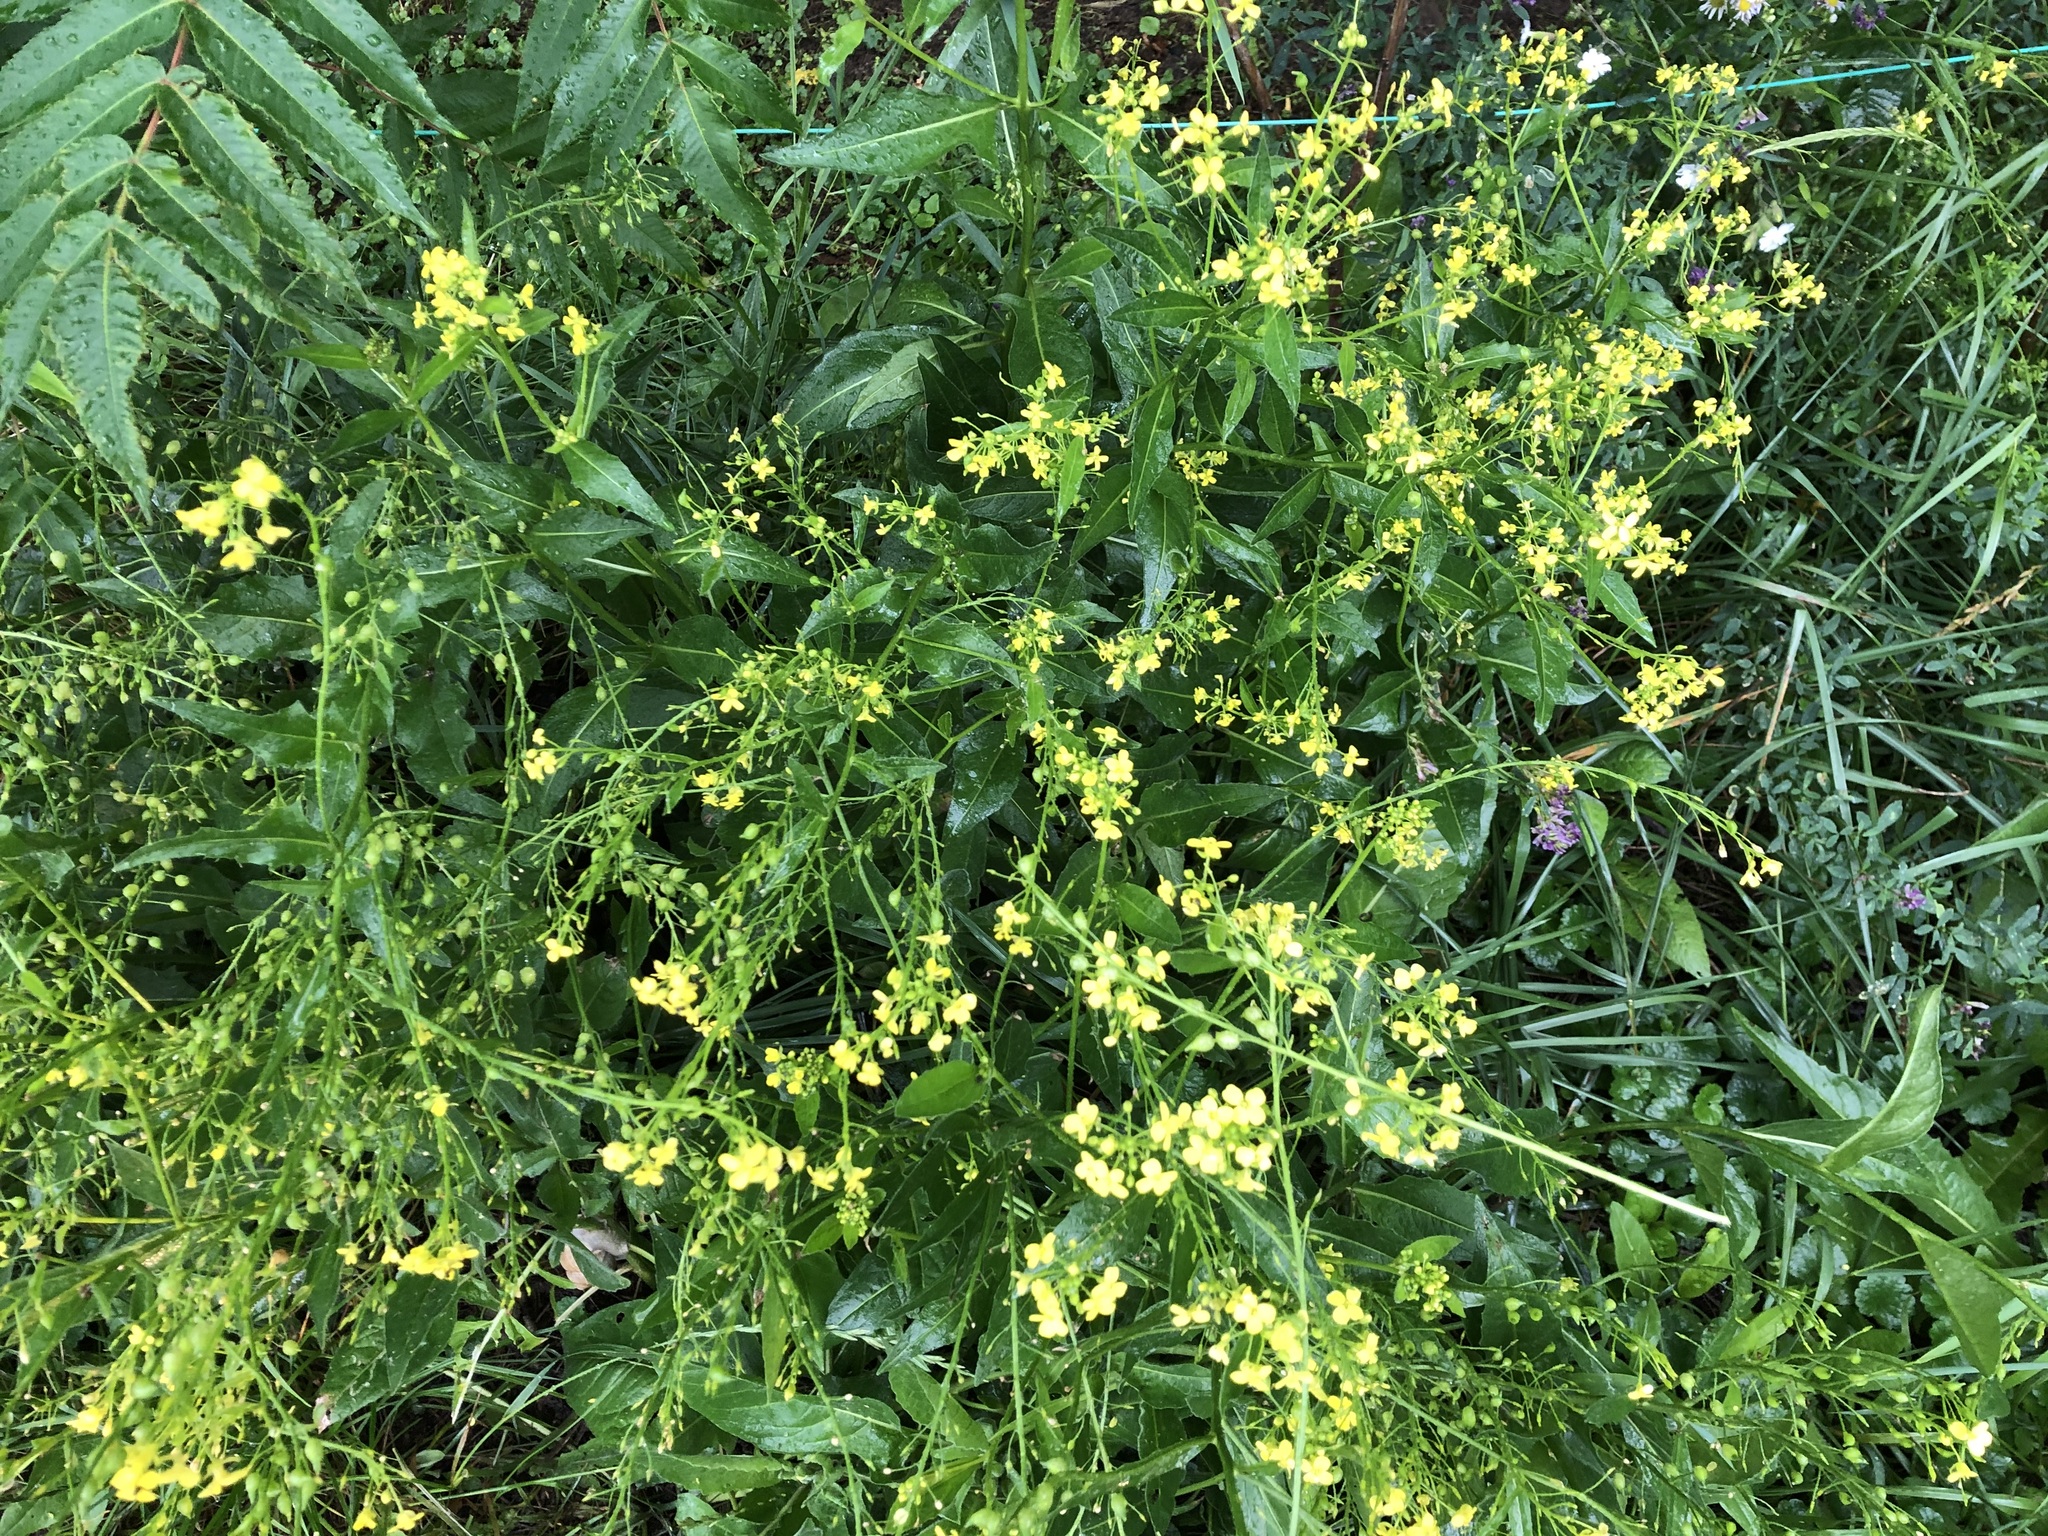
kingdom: Plantae
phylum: Tracheophyta
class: Magnoliopsida
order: Brassicales
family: Brassicaceae
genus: Bunias
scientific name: Bunias orientalis
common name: Warty-cabbage
